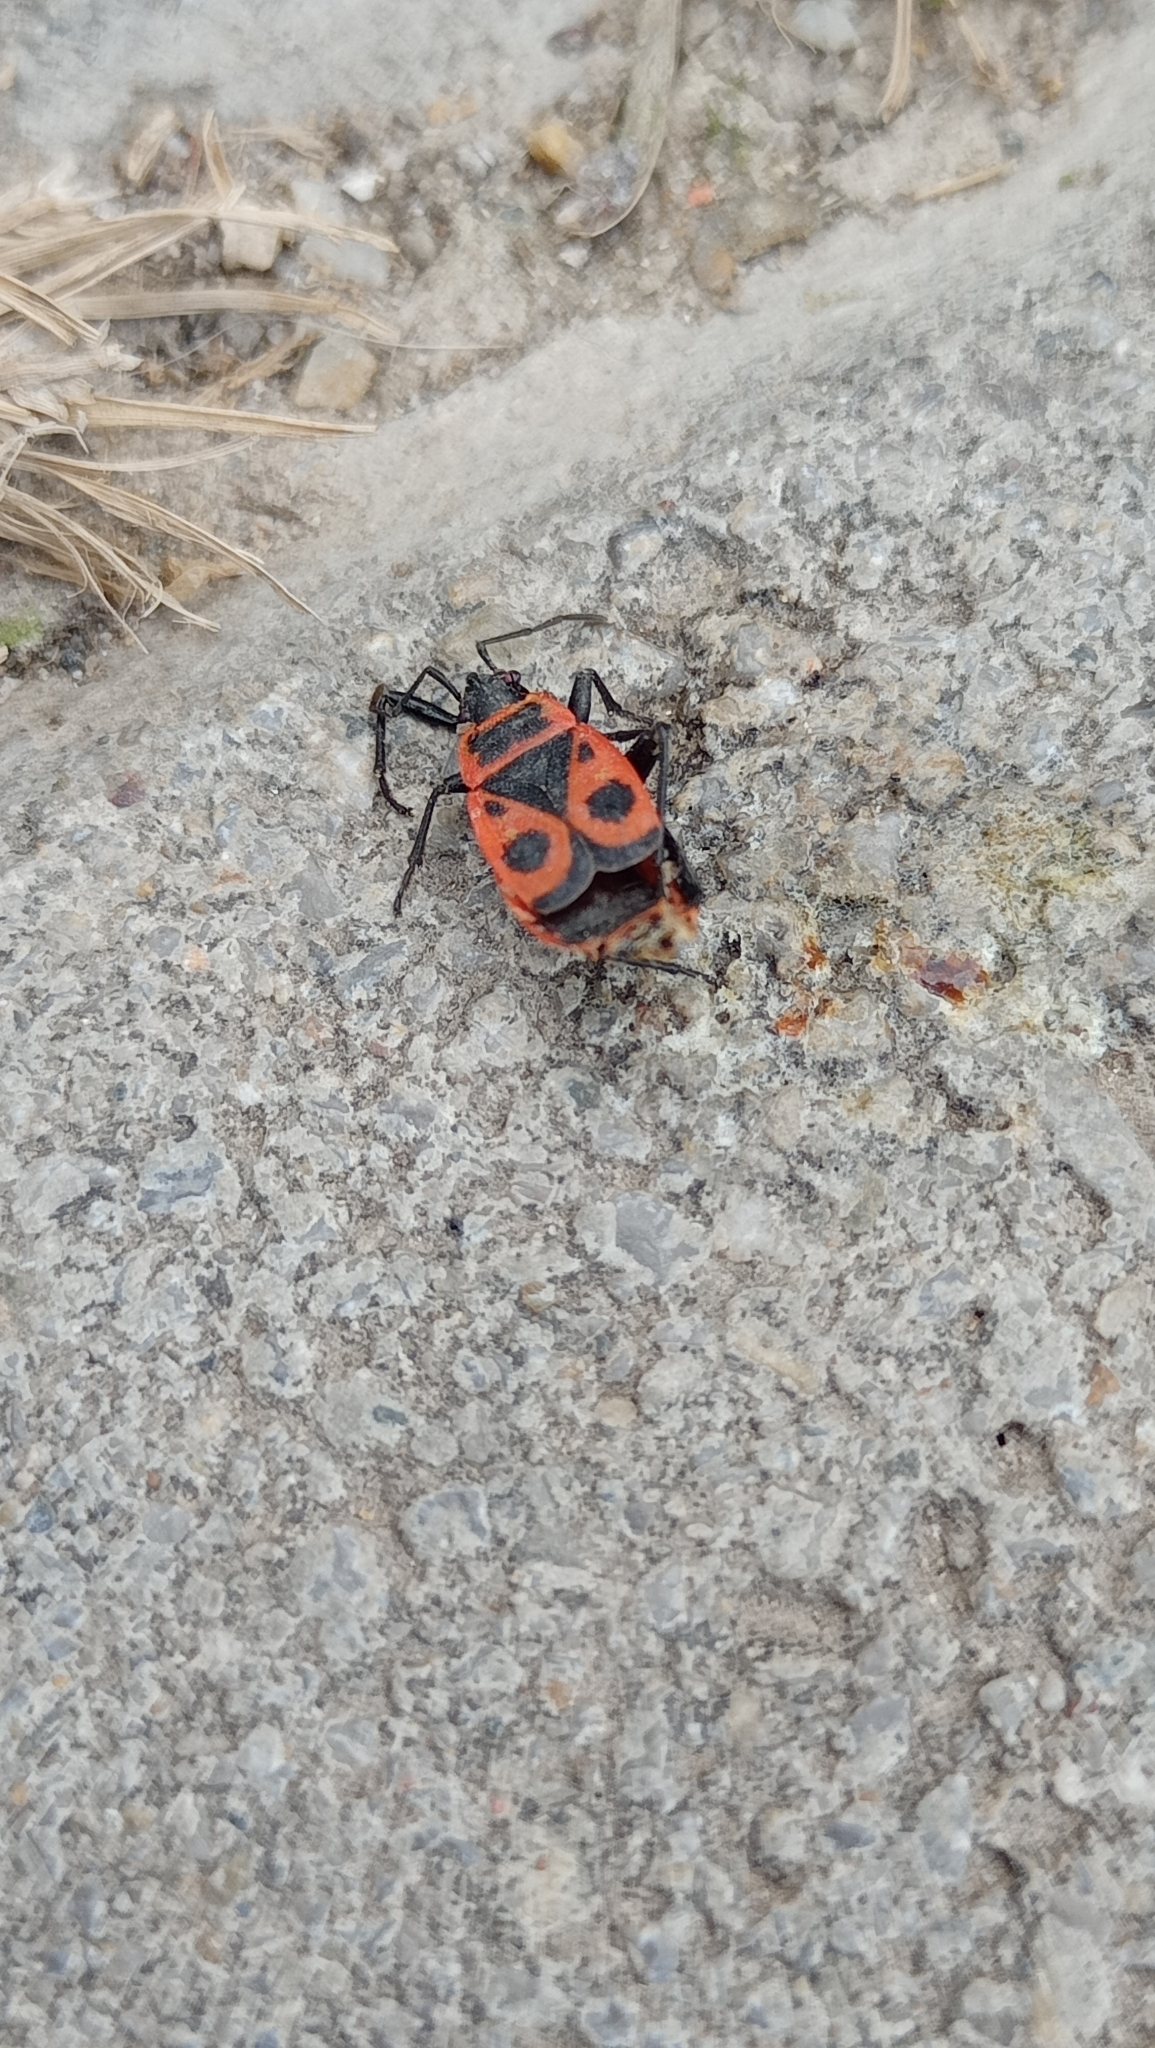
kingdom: Animalia
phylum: Arthropoda
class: Insecta
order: Hemiptera
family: Pyrrhocoridae
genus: Pyrrhocoris
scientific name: Pyrrhocoris apterus
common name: Firebug
